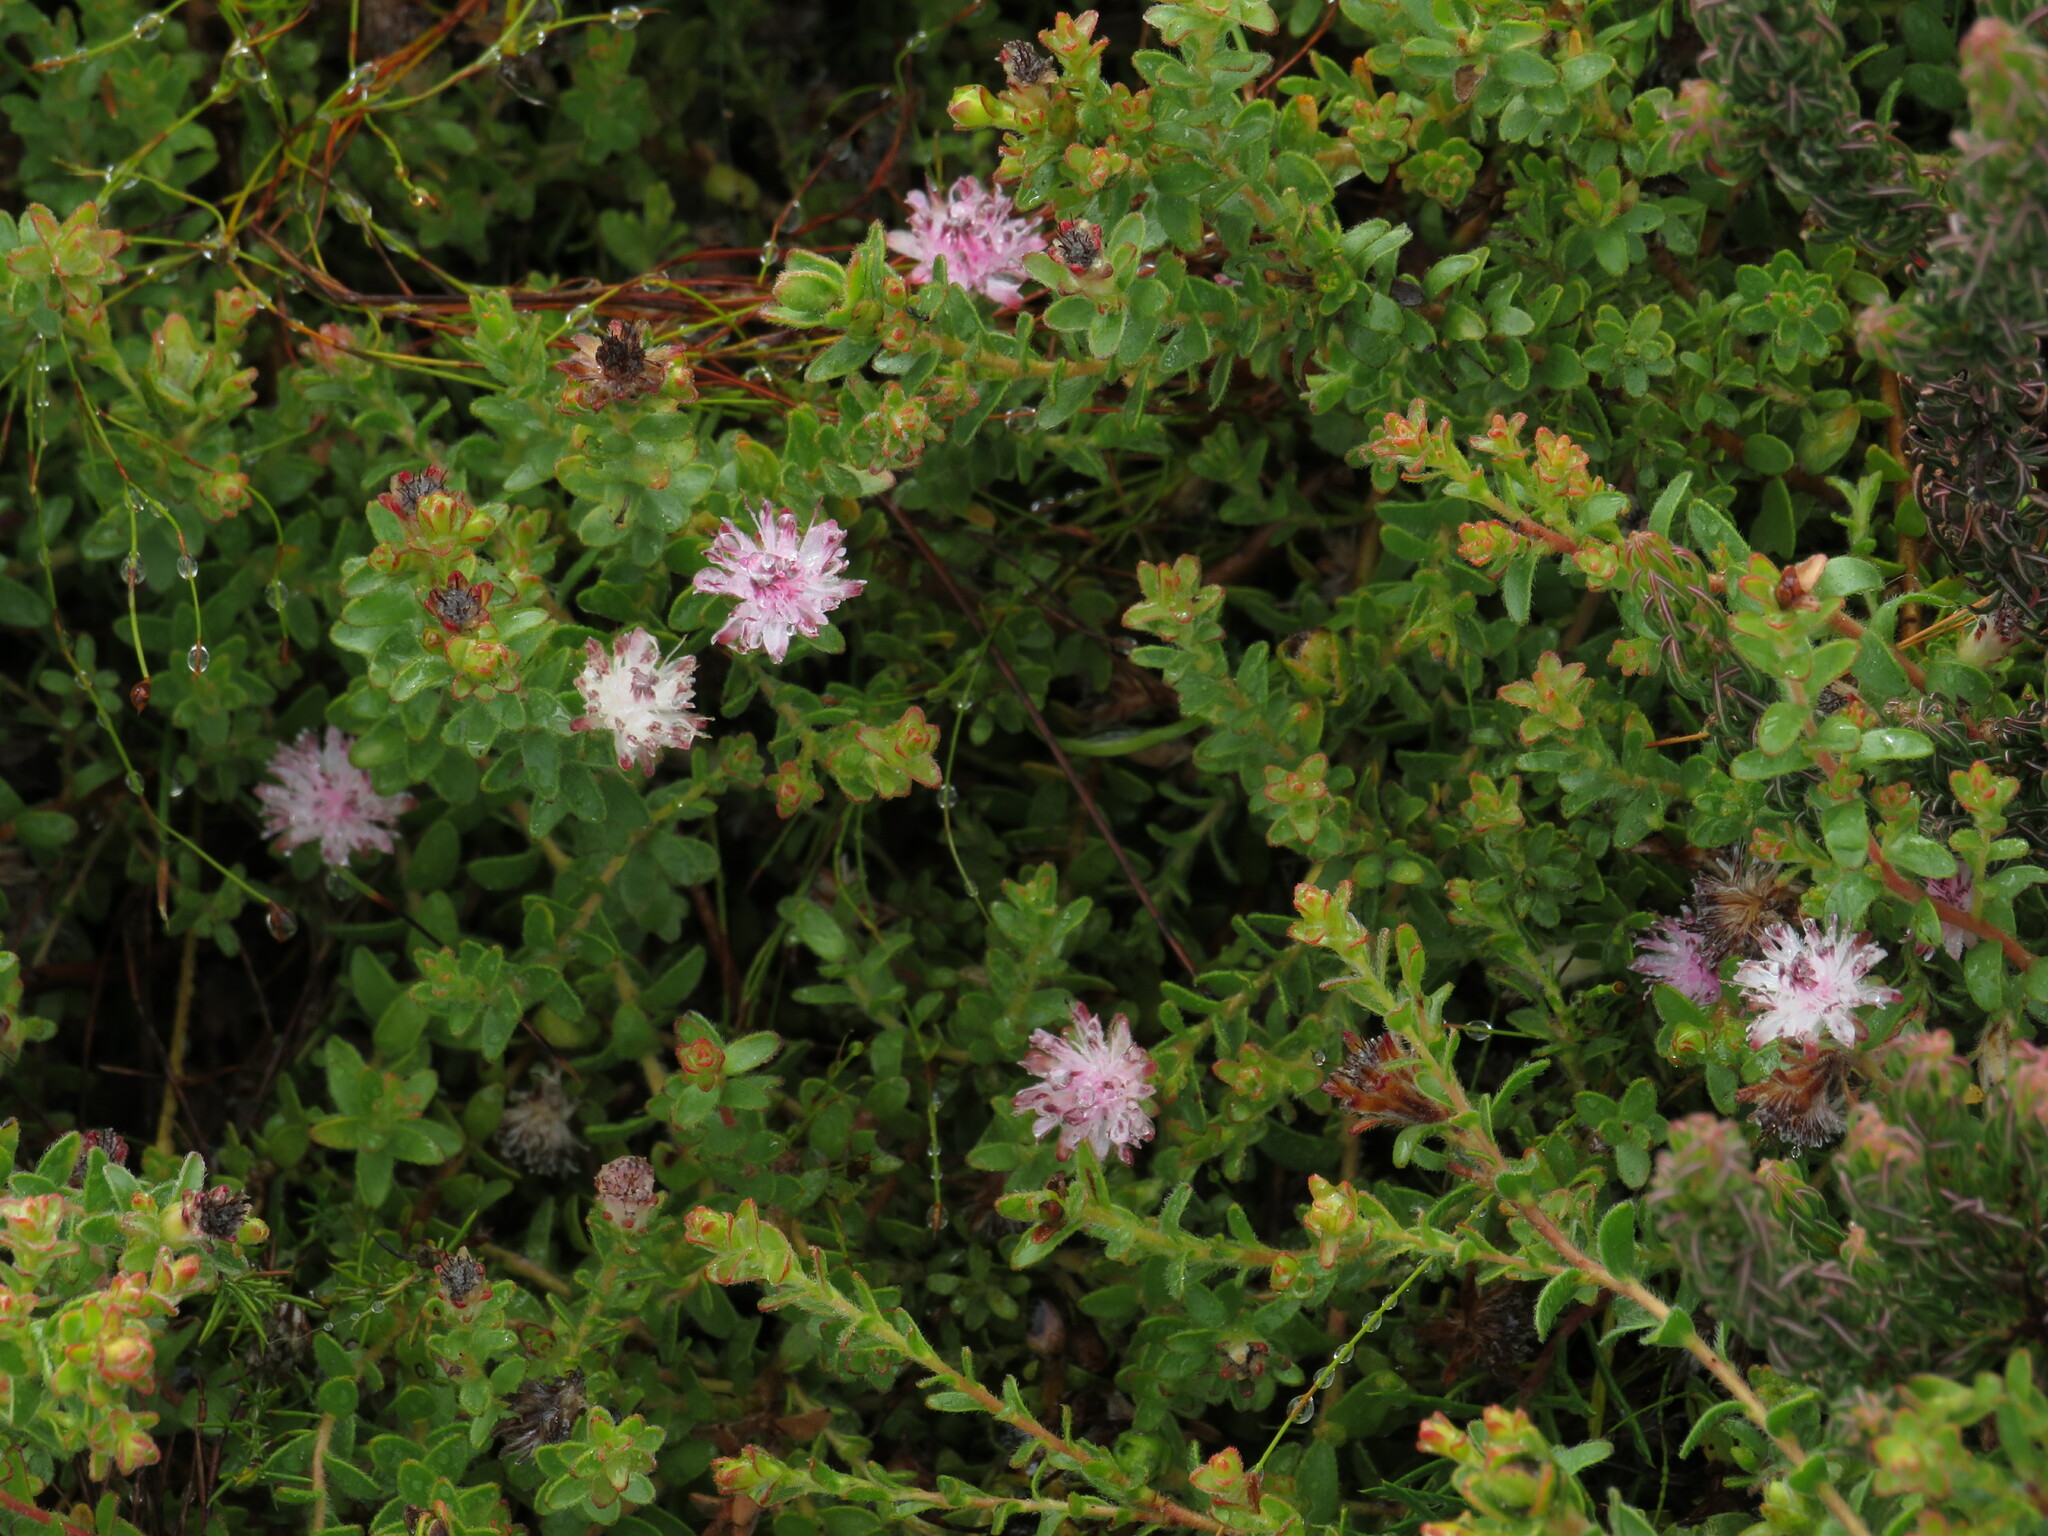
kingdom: Plantae
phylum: Tracheophyta
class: Magnoliopsida
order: Proteales
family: Proteaceae
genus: Diastella
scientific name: Diastella divaricata
